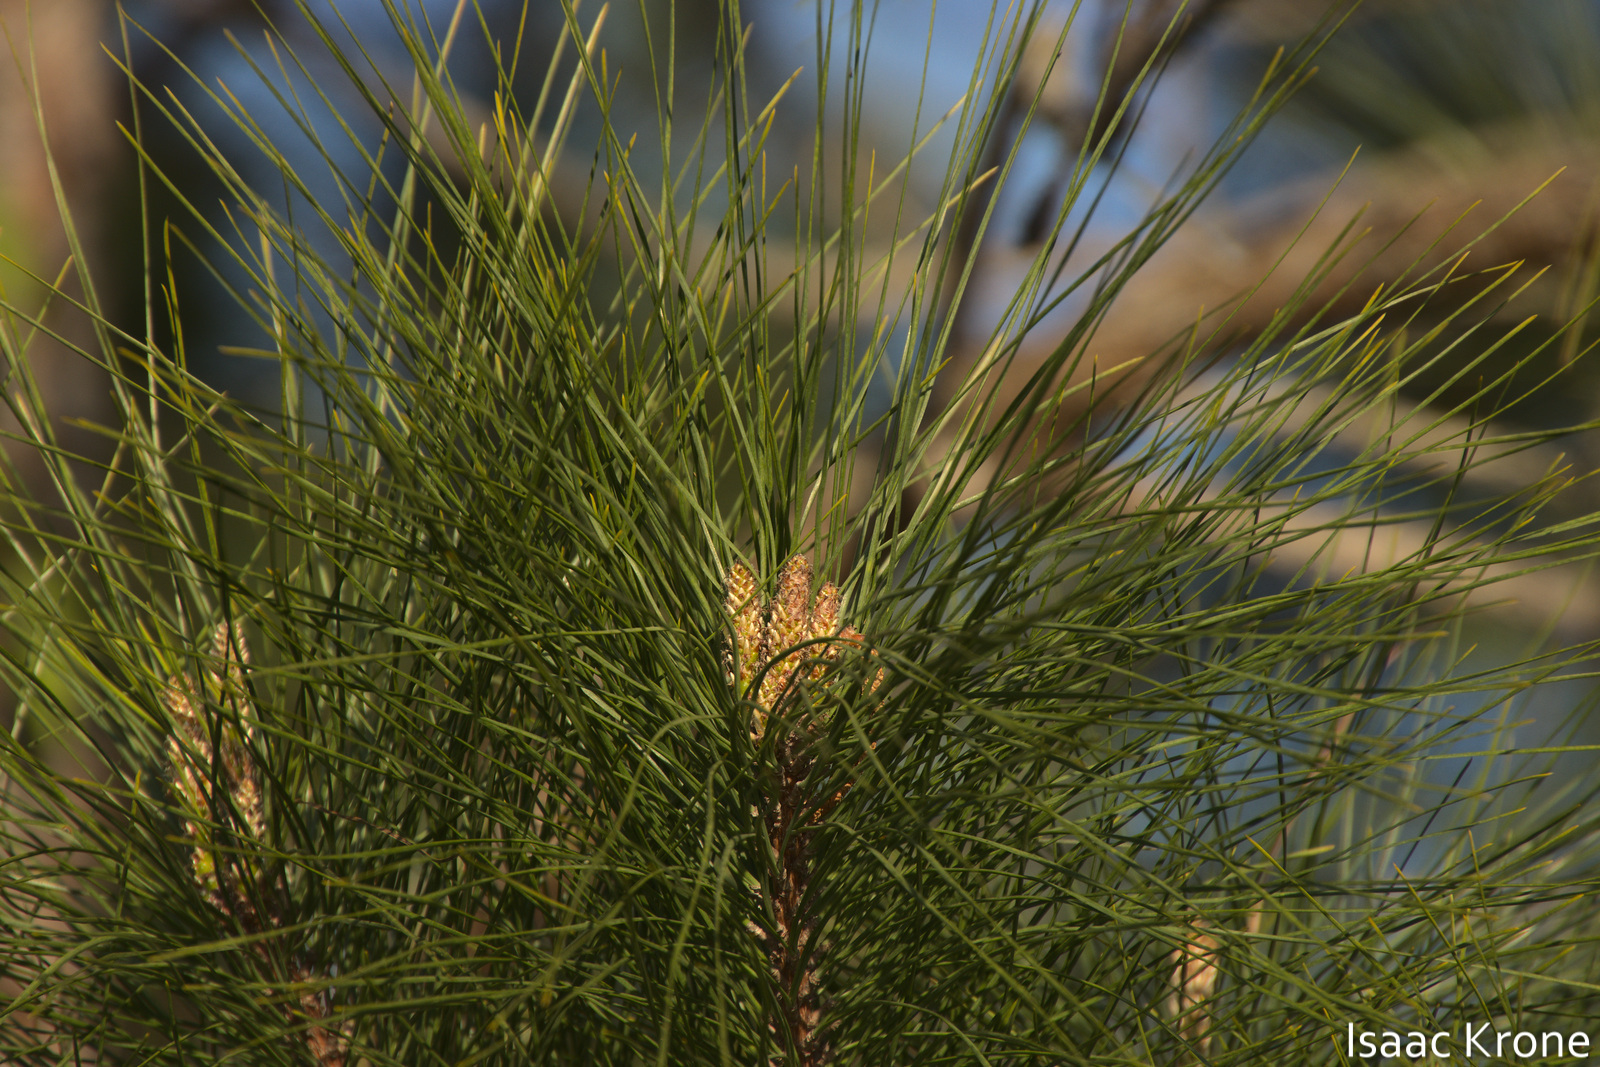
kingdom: Plantae
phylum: Tracheophyta
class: Pinopsida
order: Pinales
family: Pinaceae
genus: Pinus
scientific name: Pinus taeda
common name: Loblolly pine
